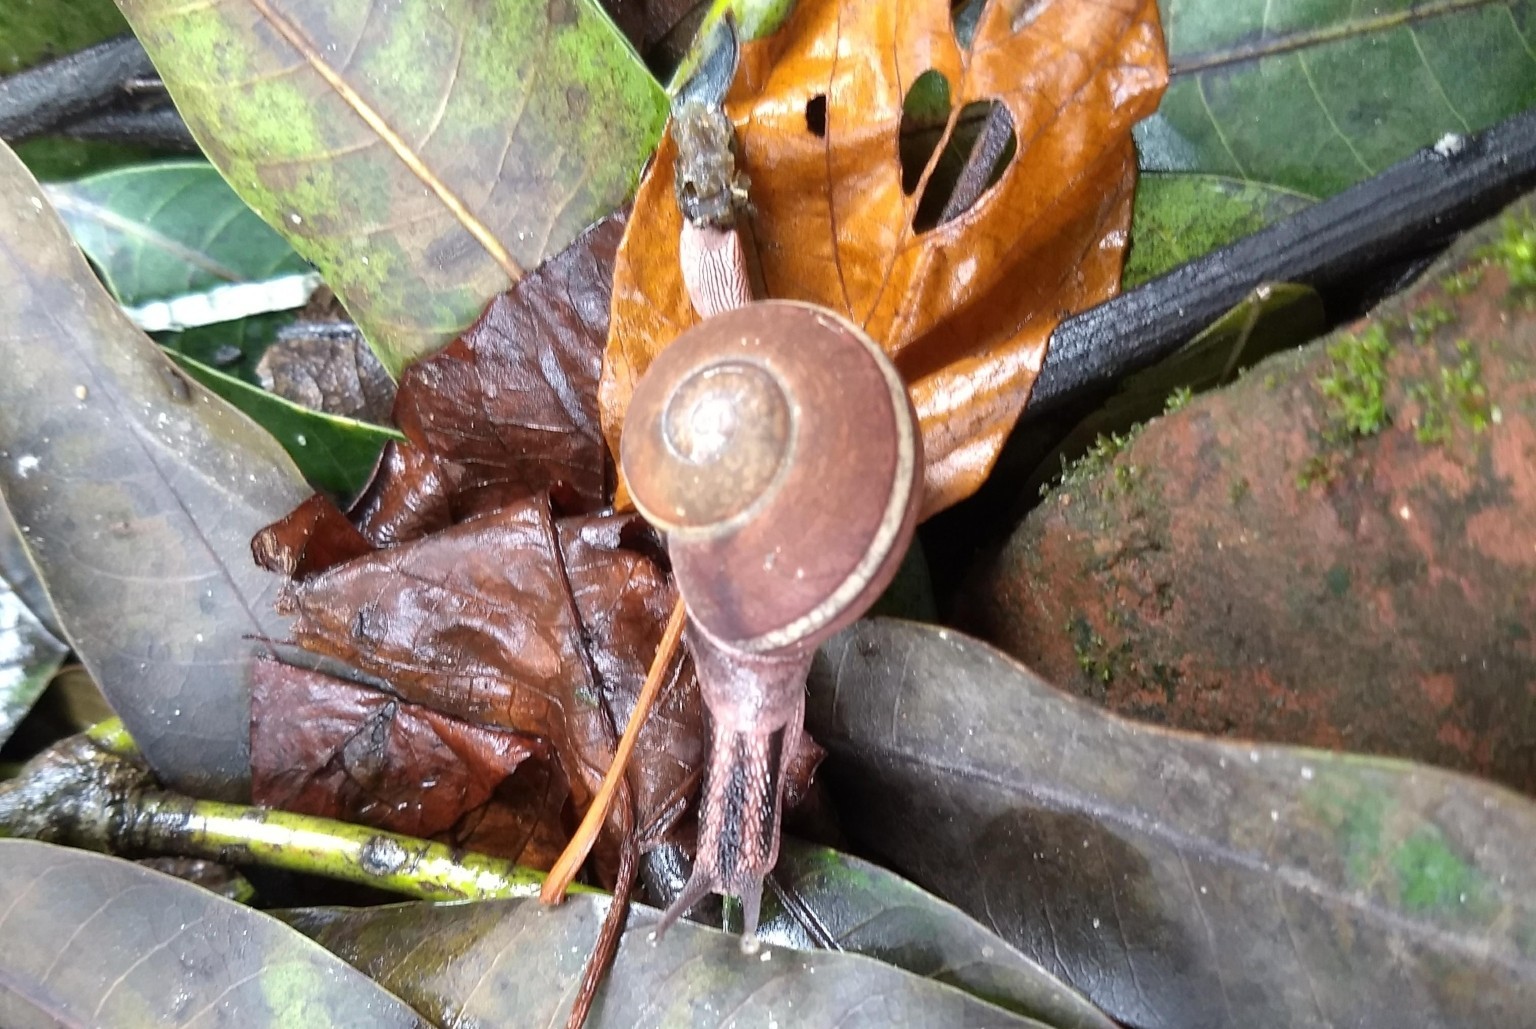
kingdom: Animalia
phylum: Mollusca
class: Gastropoda
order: Stylommatophora
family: Ariophantidae
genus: Ariophanta
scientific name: Ariophanta exilis
